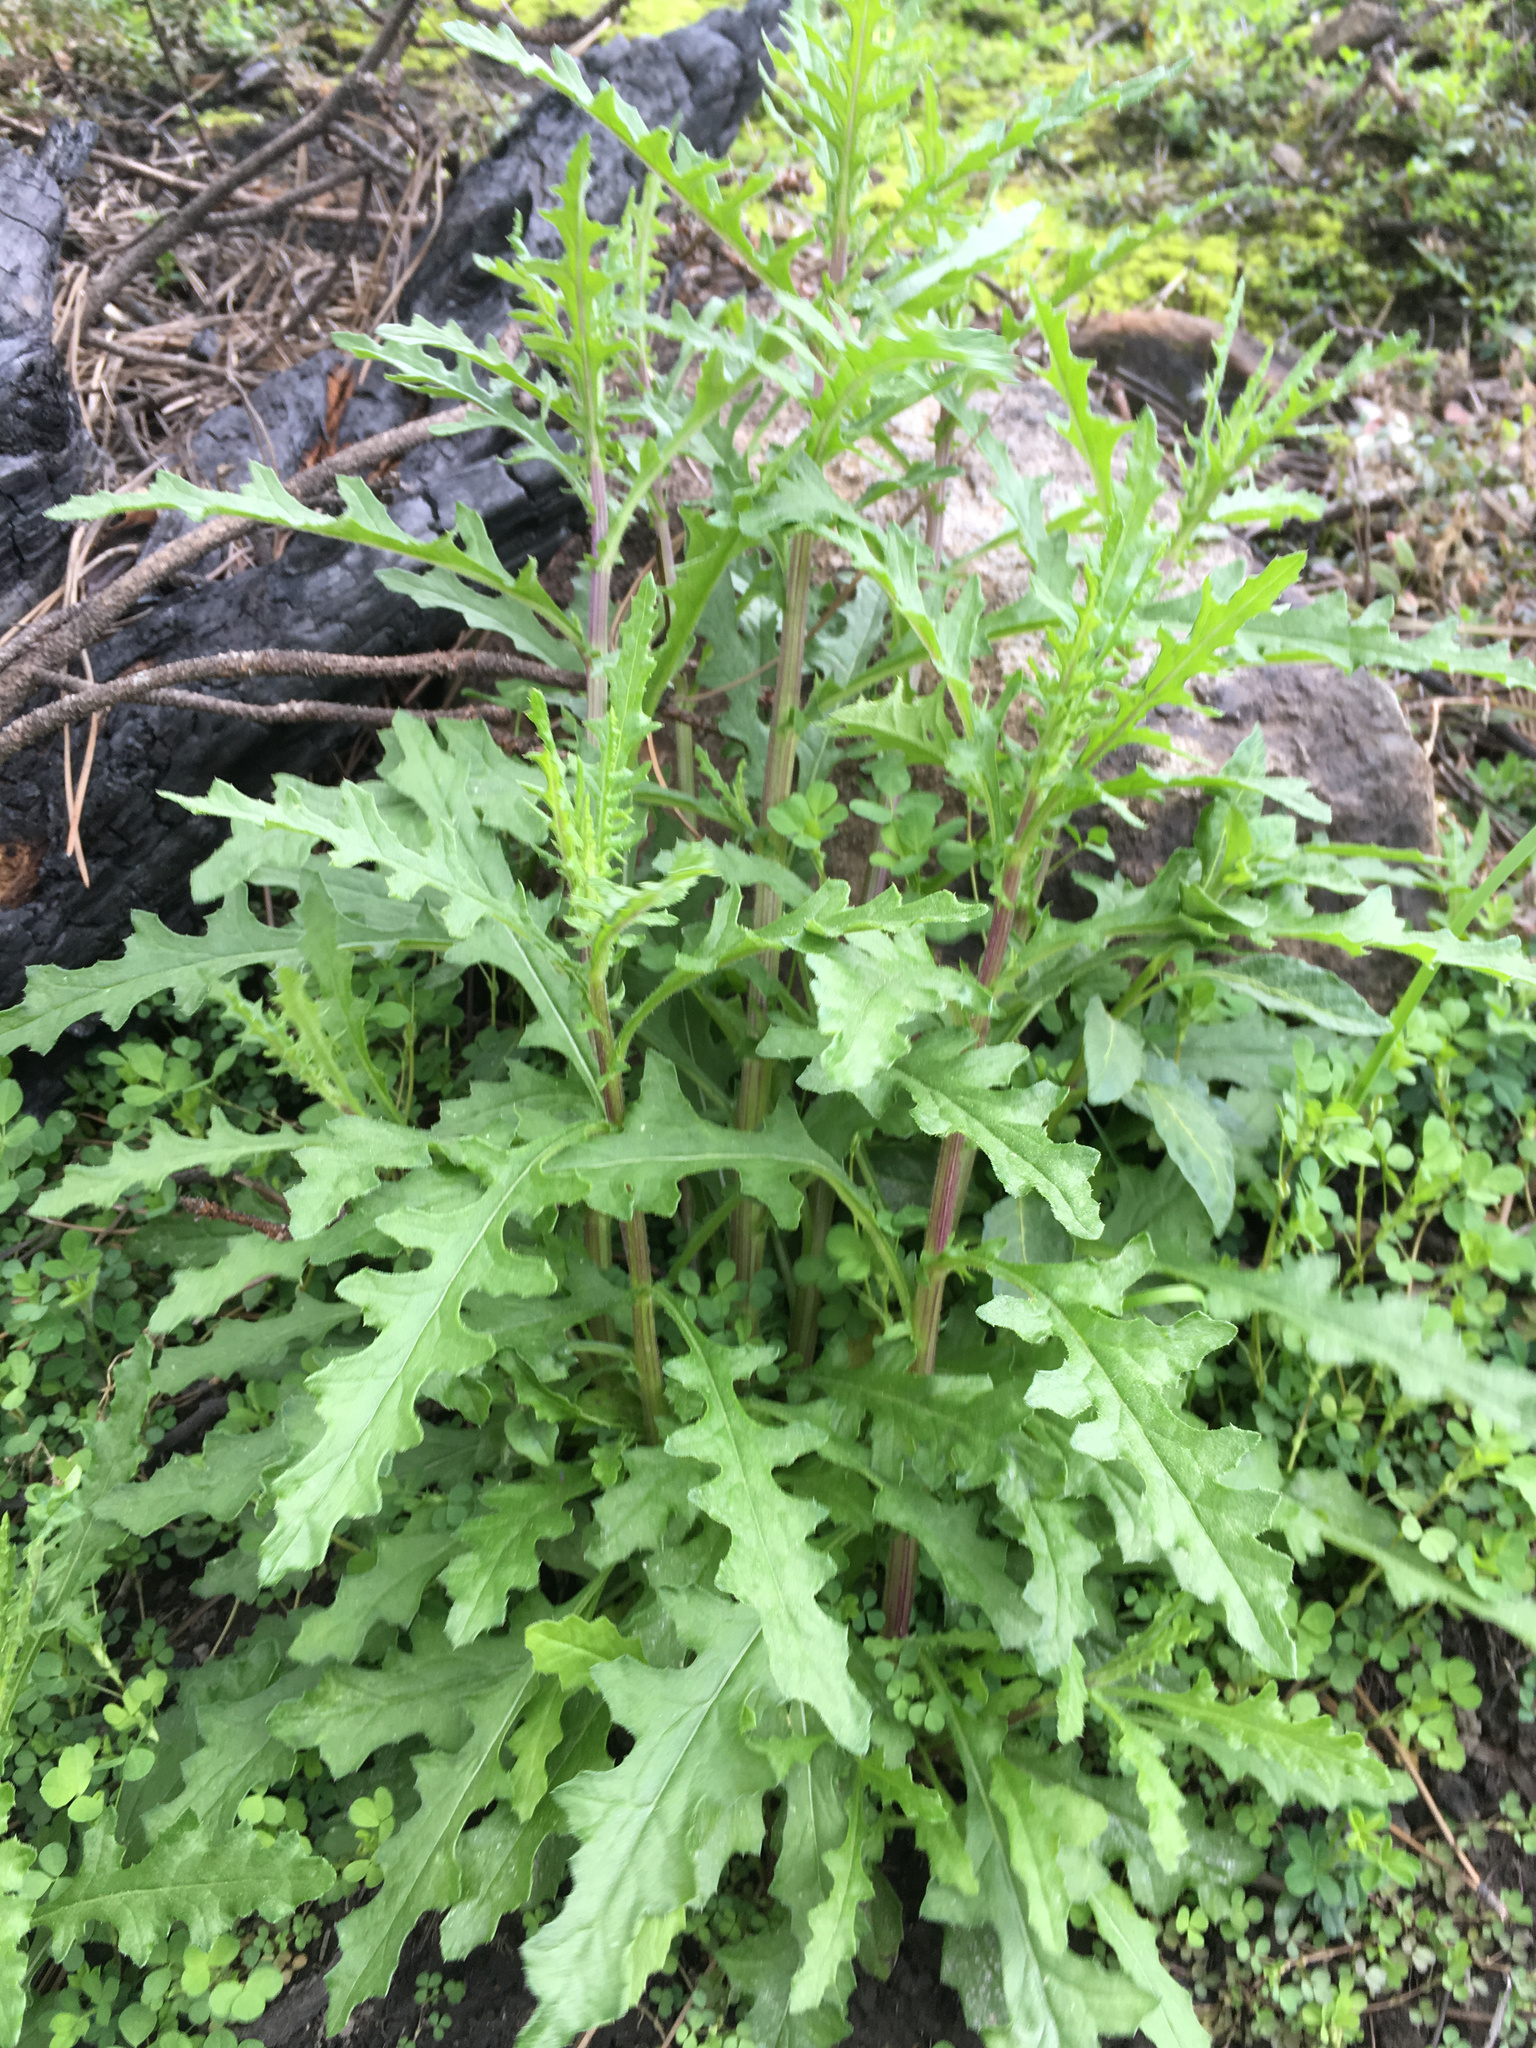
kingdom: Plantae
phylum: Tracheophyta
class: Magnoliopsida
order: Asterales
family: Asteraceae
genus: Senecio
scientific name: Senecio hispidulus
